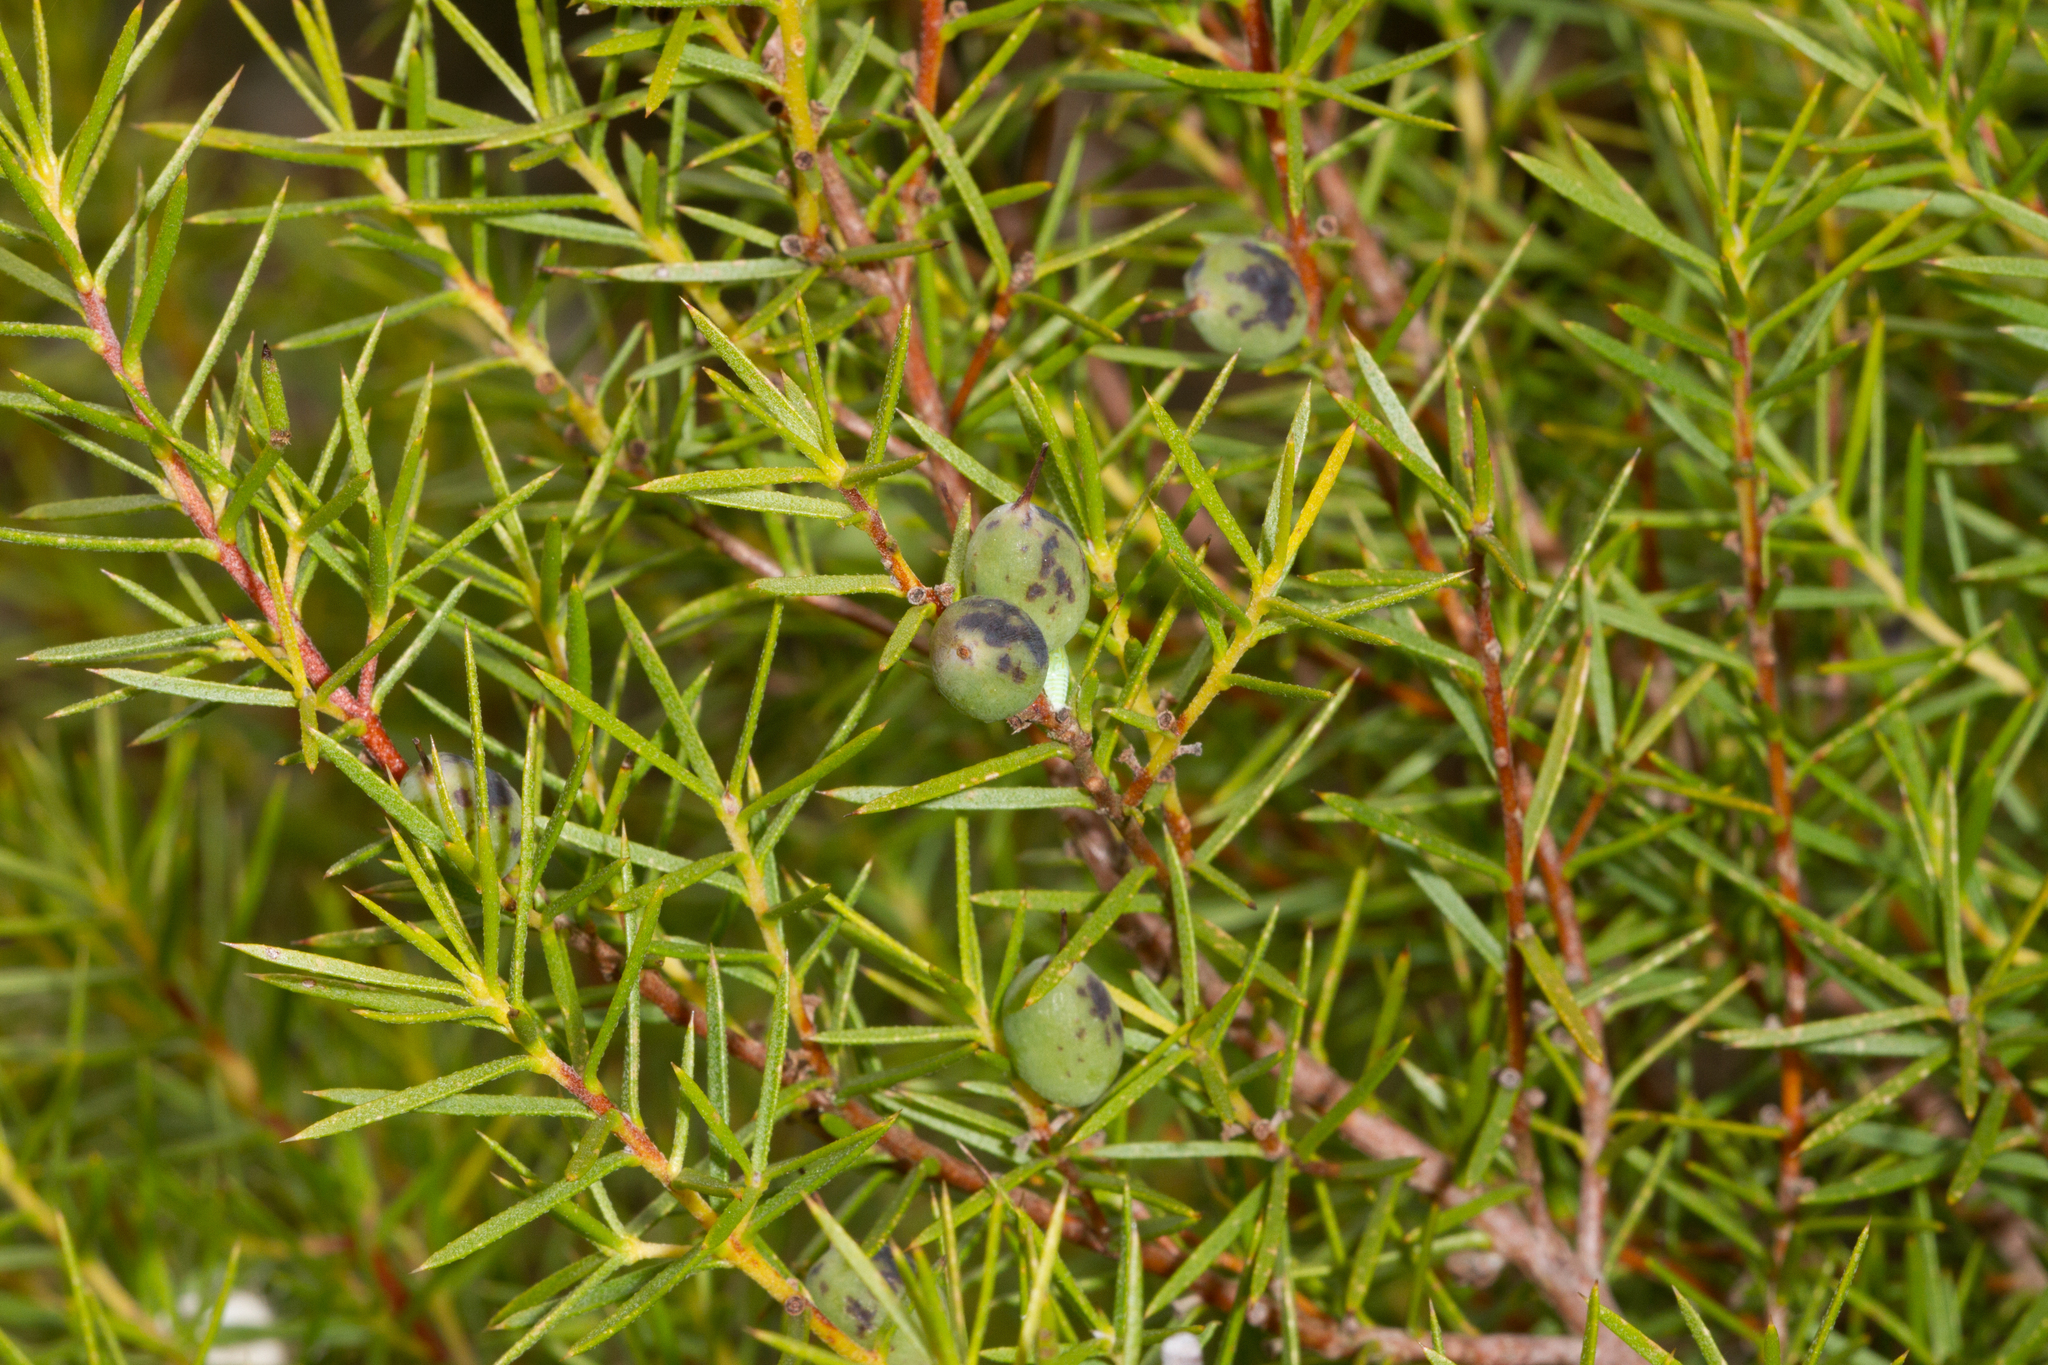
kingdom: Plantae
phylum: Tracheophyta
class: Magnoliopsida
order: Proteales
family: Proteaceae
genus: Persoonia
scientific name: Persoonia juniperina
